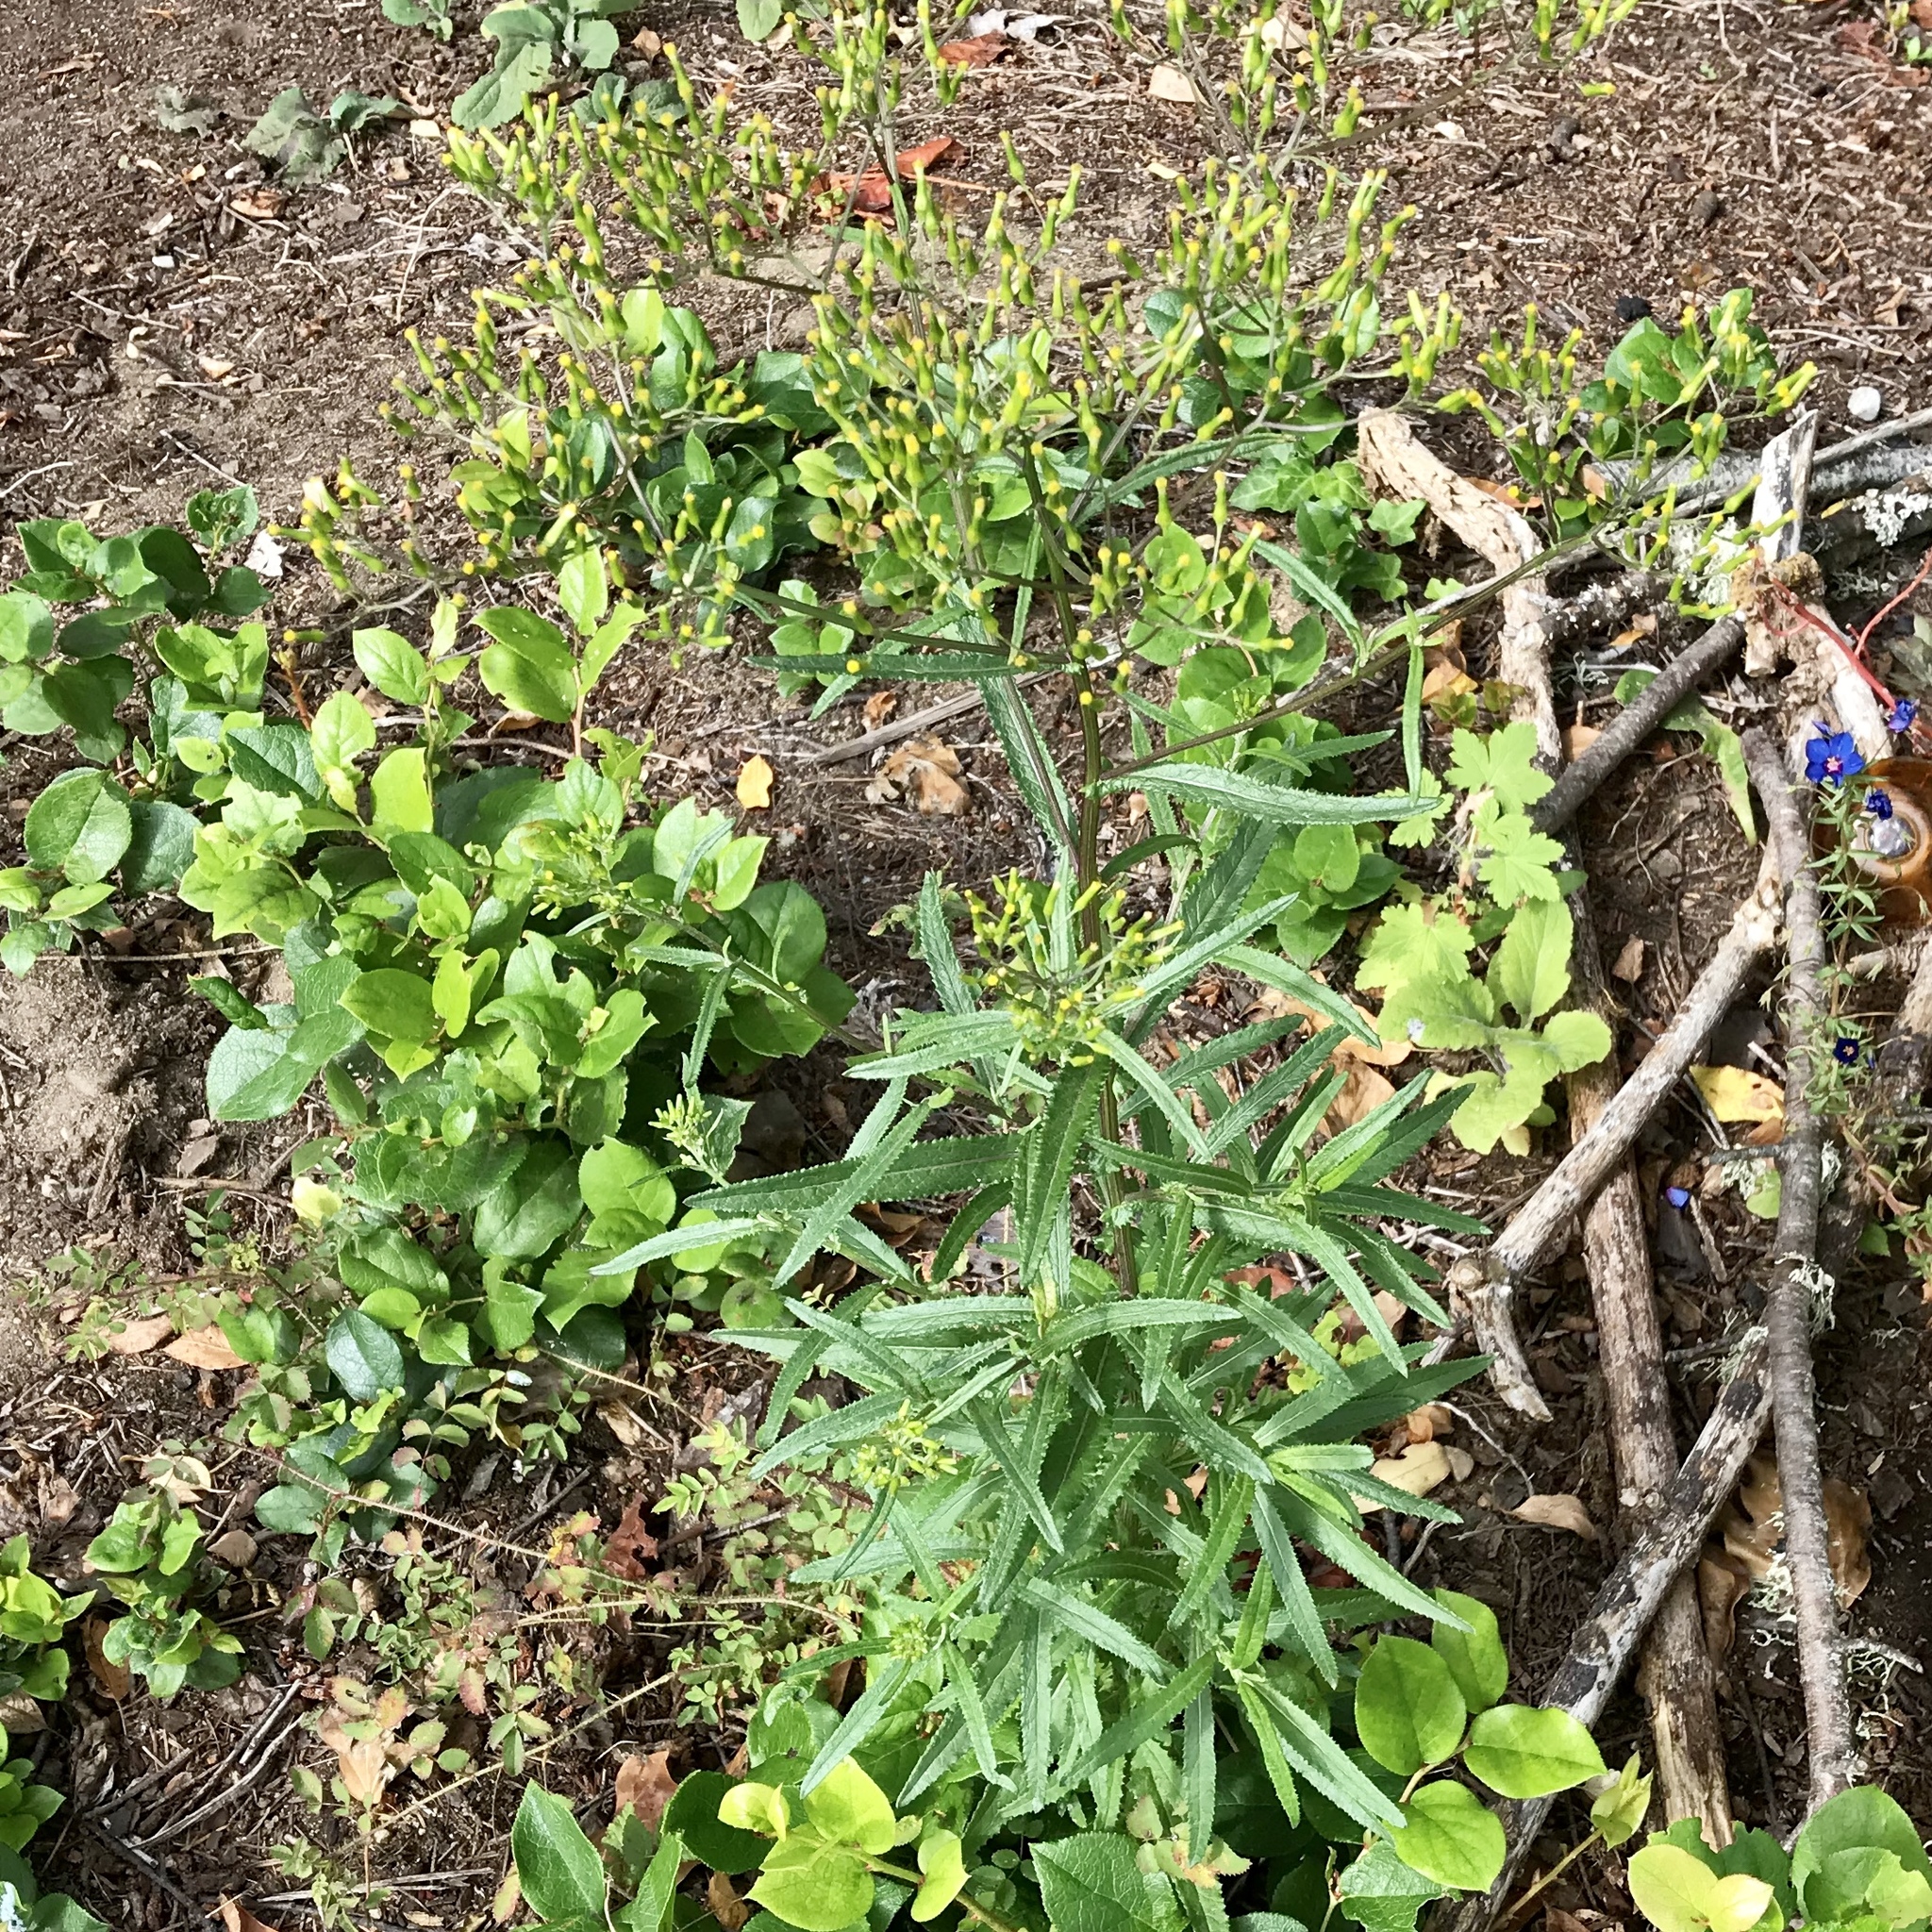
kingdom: Plantae
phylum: Tracheophyta
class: Magnoliopsida
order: Asterales
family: Asteraceae
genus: Senecio
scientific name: Senecio minimus
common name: Toothed fireweed
